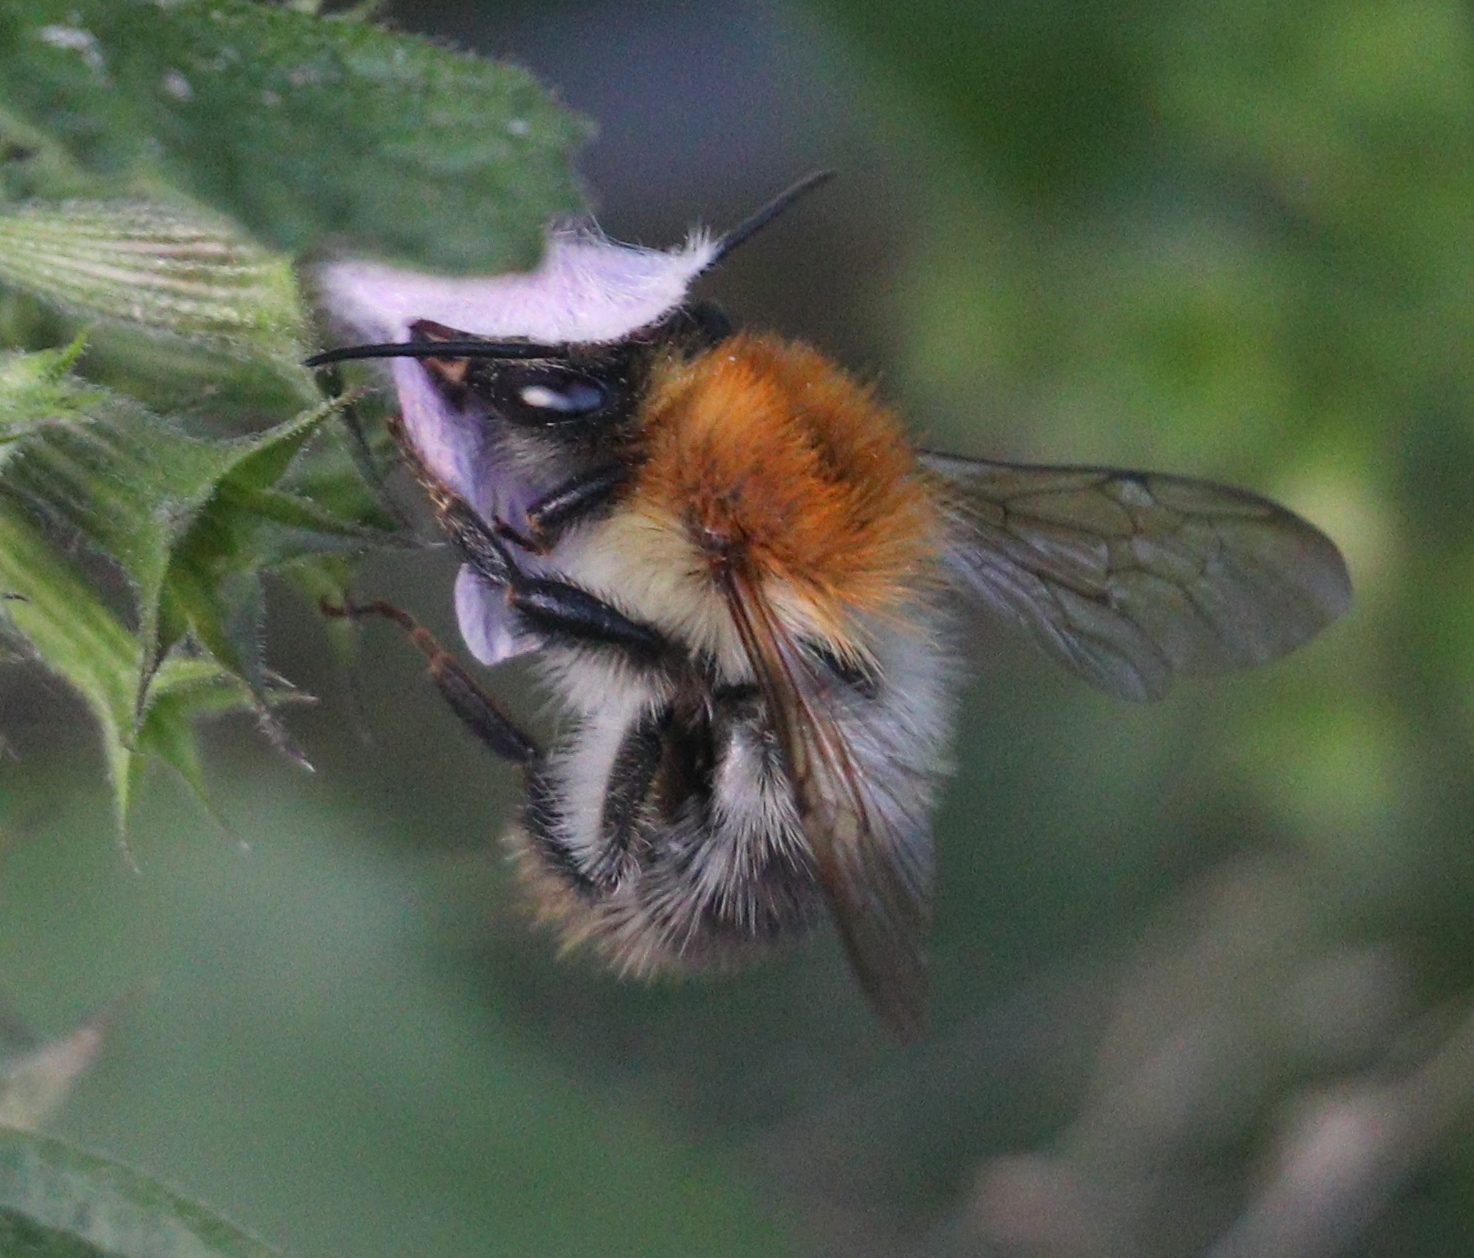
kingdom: Animalia
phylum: Arthropoda
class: Insecta
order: Hymenoptera
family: Apidae
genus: Bombus
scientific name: Bombus pascuorum
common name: Common carder bee
